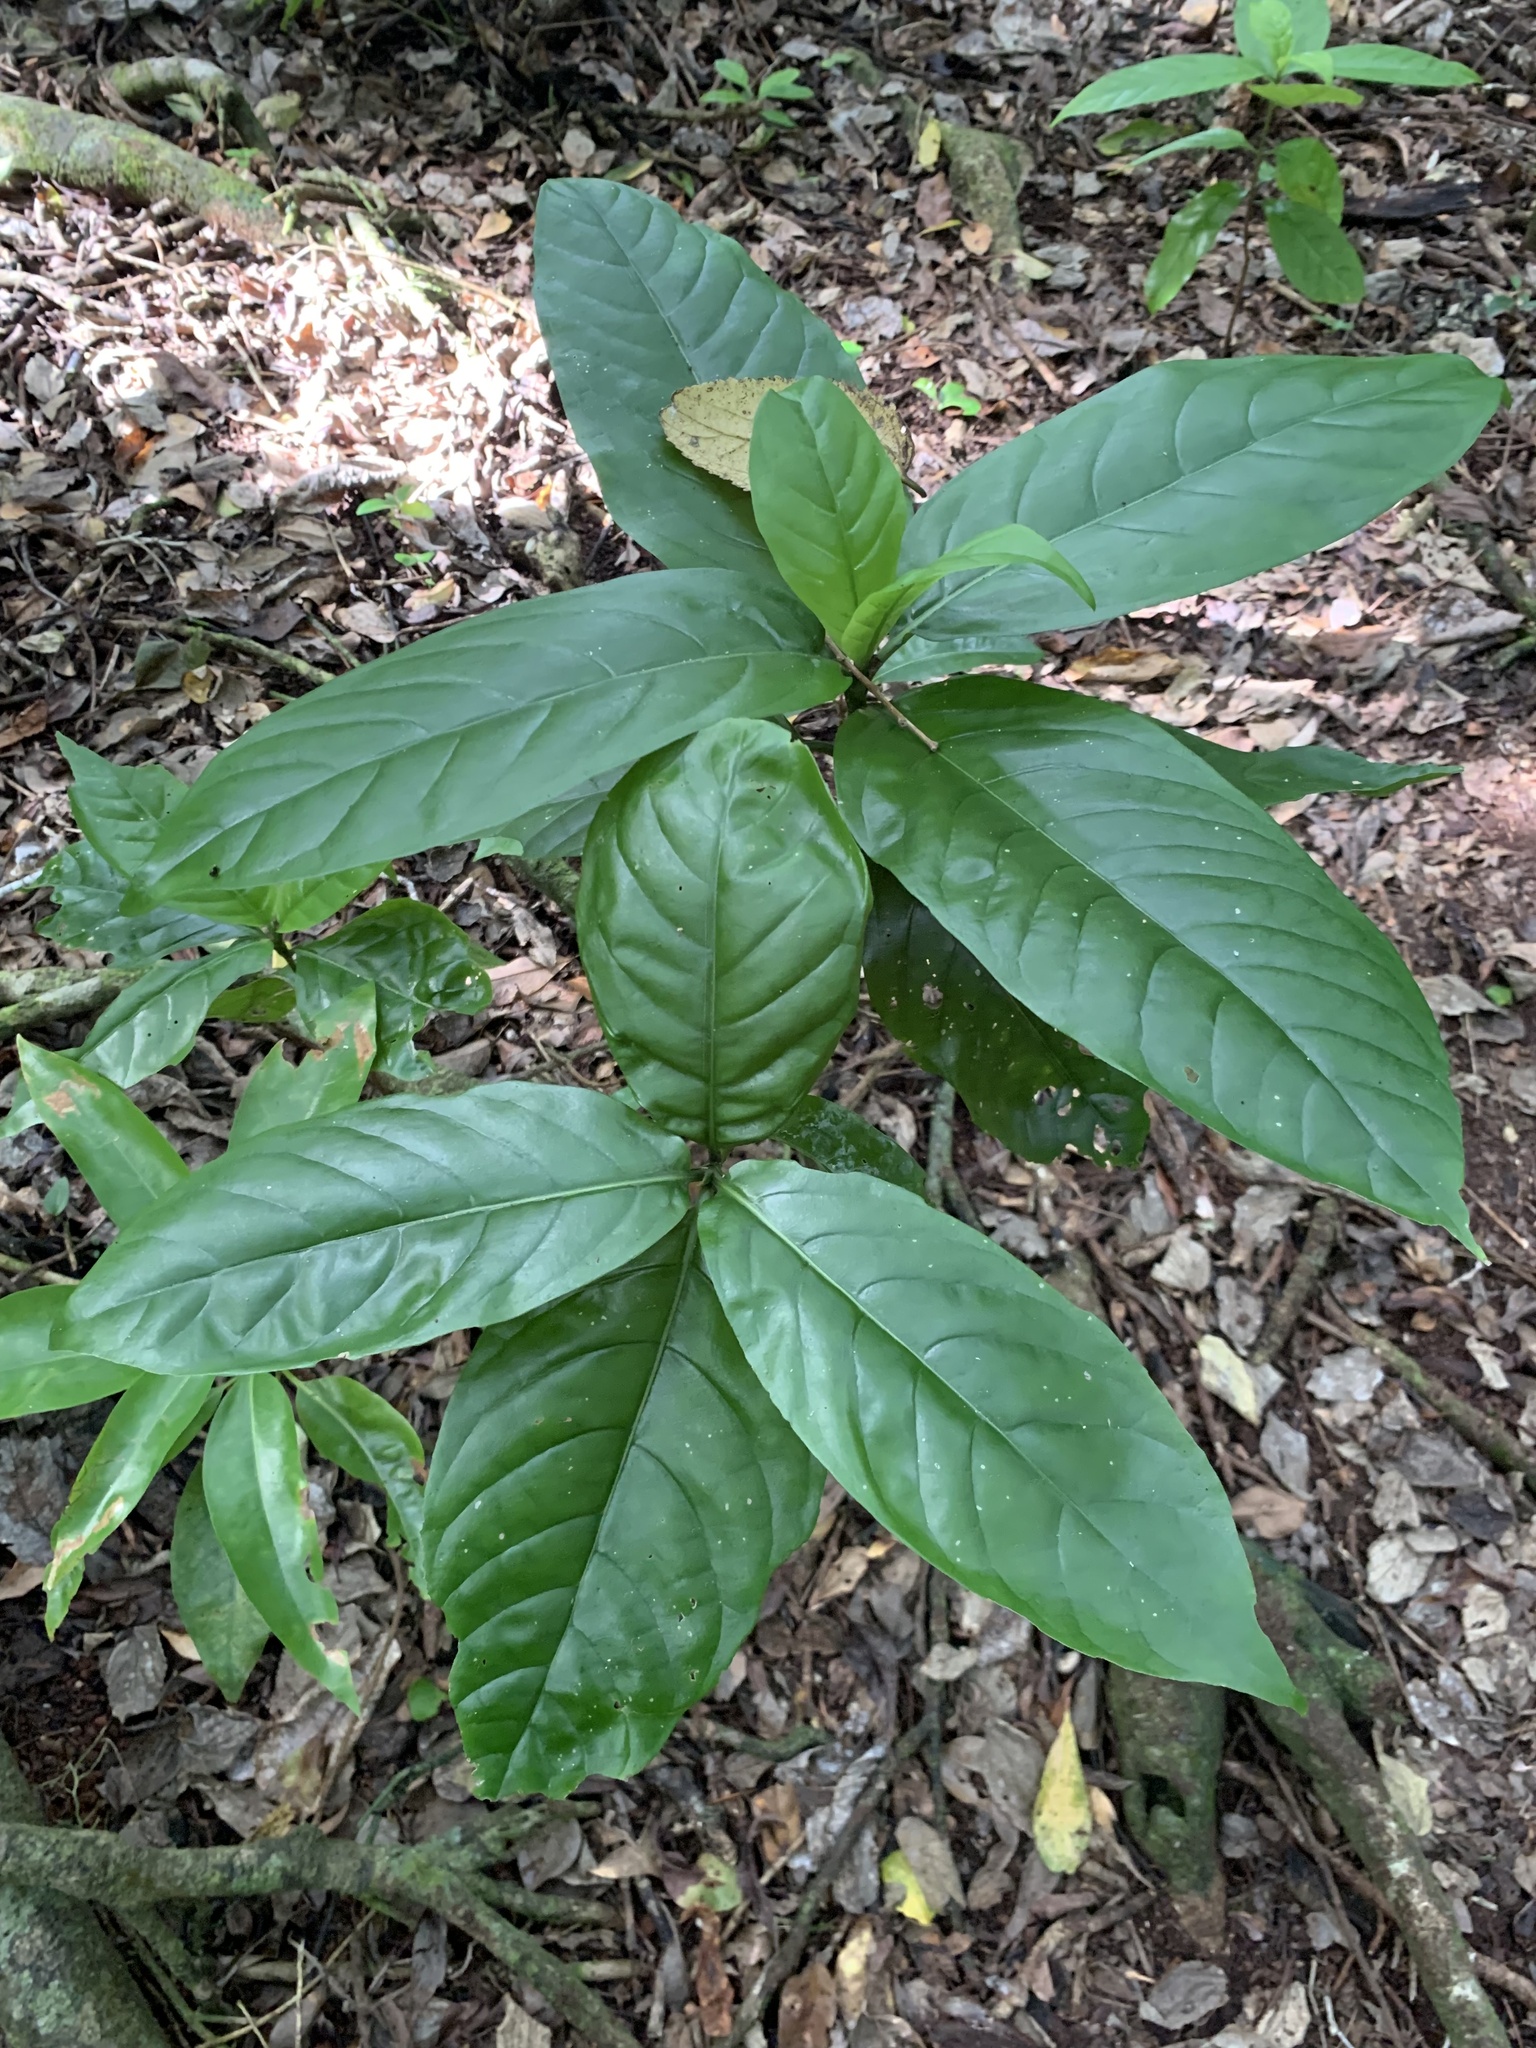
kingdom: Plantae
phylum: Tracheophyta
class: Magnoliopsida
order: Gentianales
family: Rubiaceae
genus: Tarenna
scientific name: Tarenna subsessilis
